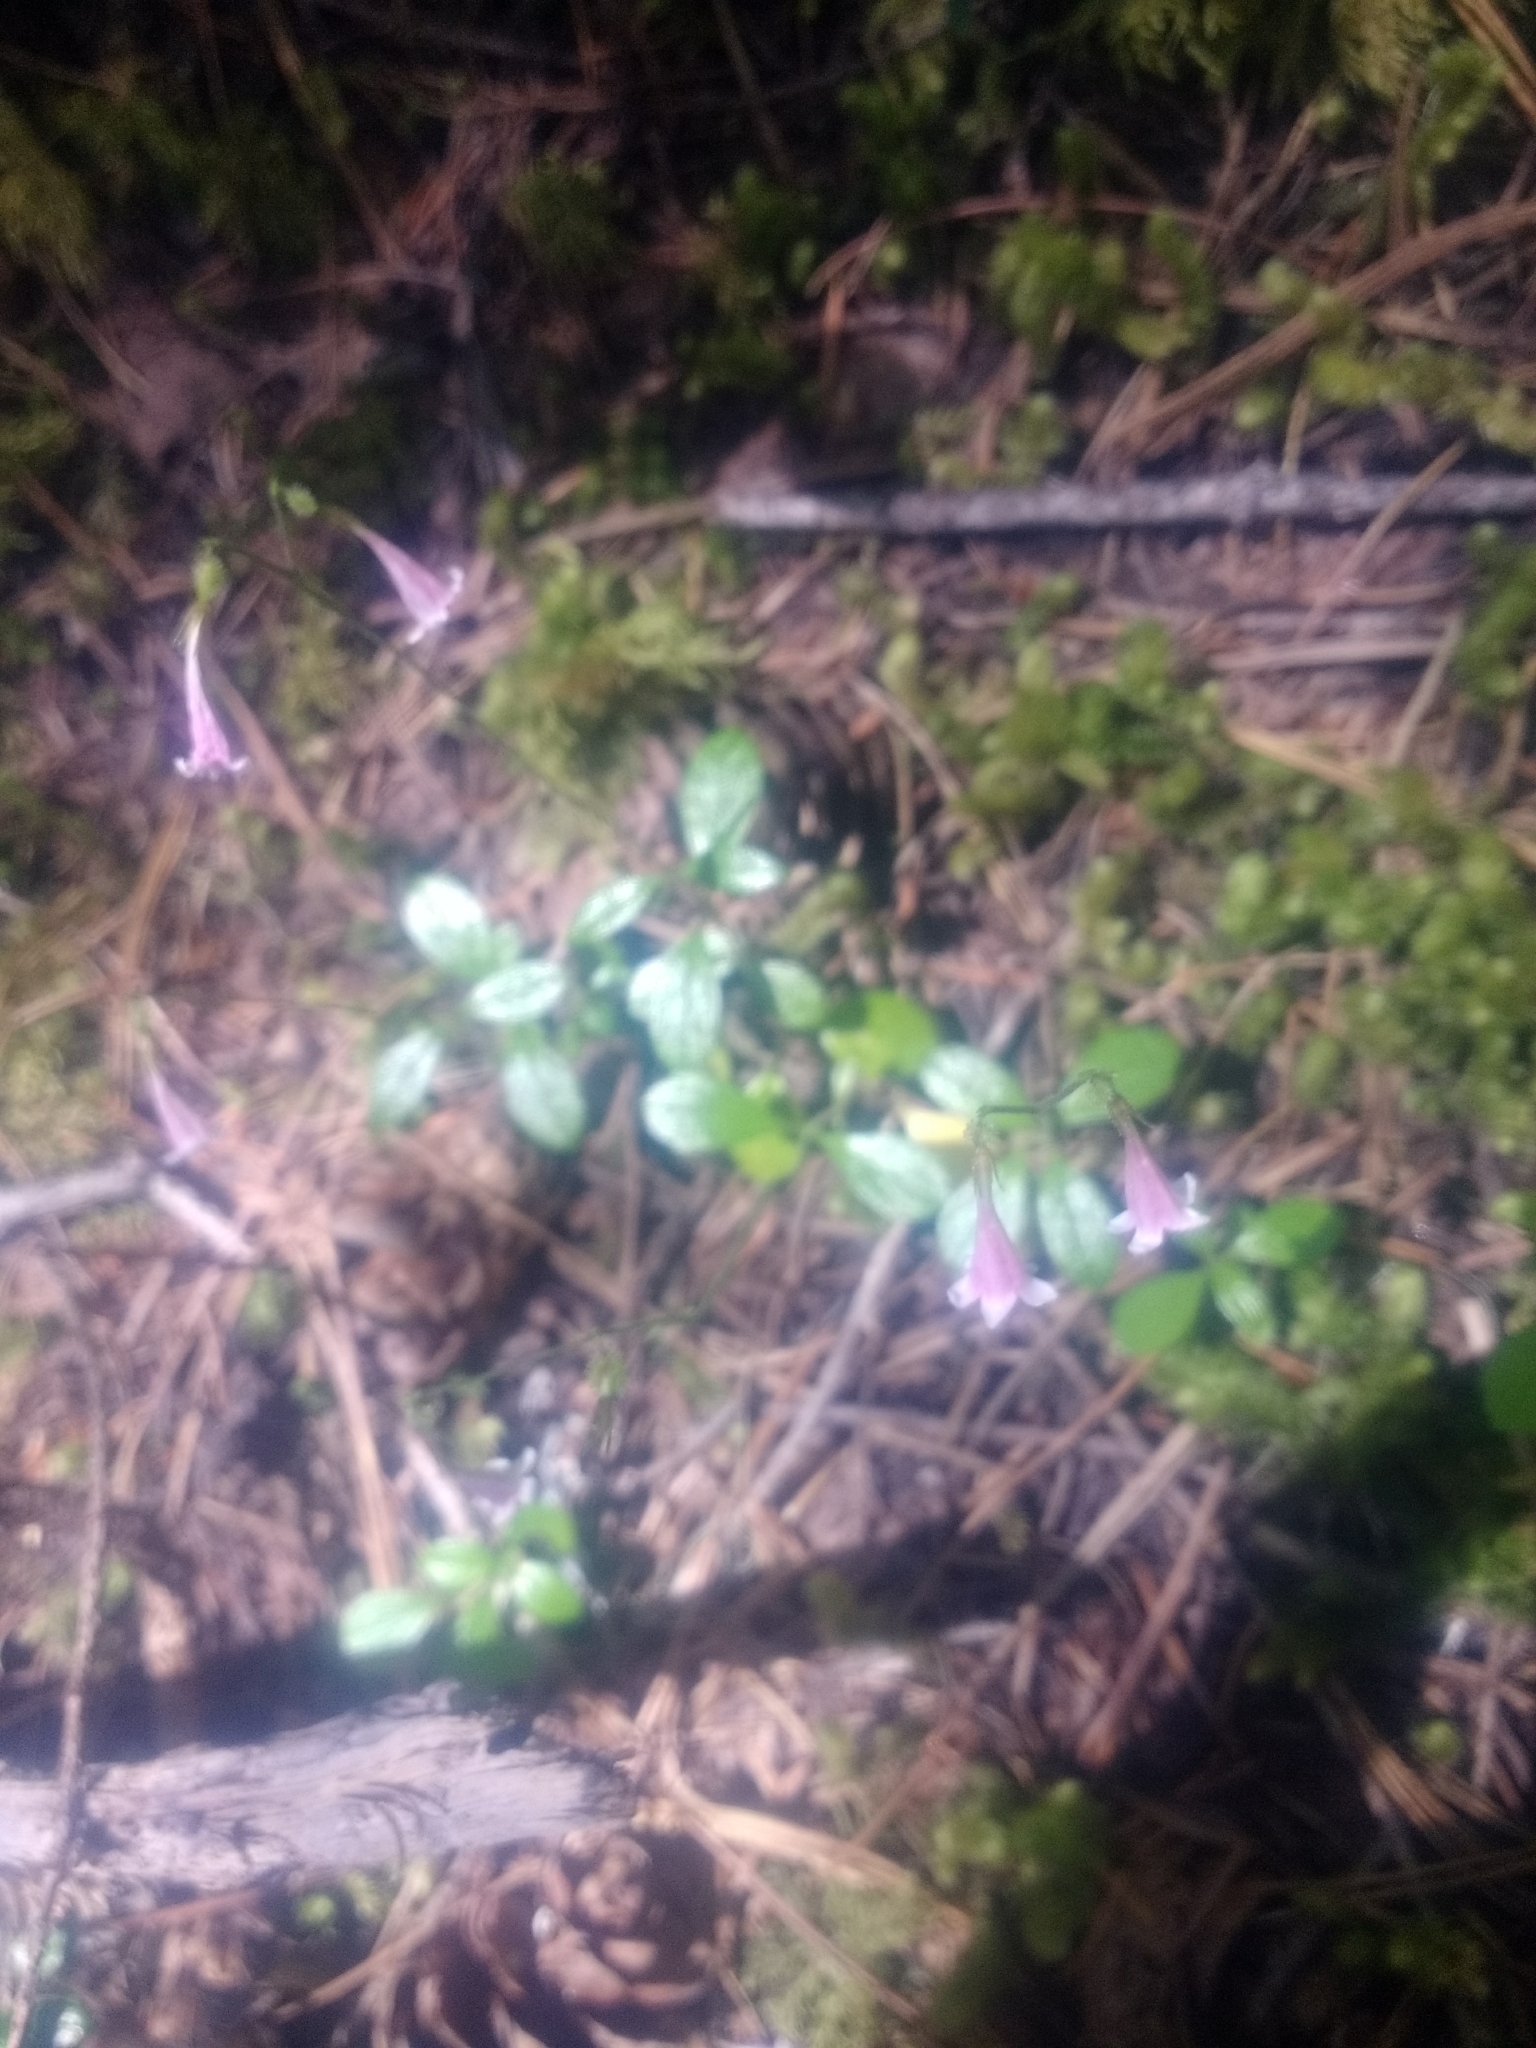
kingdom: Plantae
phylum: Tracheophyta
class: Magnoliopsida
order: Dipsacales
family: Caprifoliaceae
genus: Linnaea
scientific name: Linnaea borealis
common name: Twinflower
